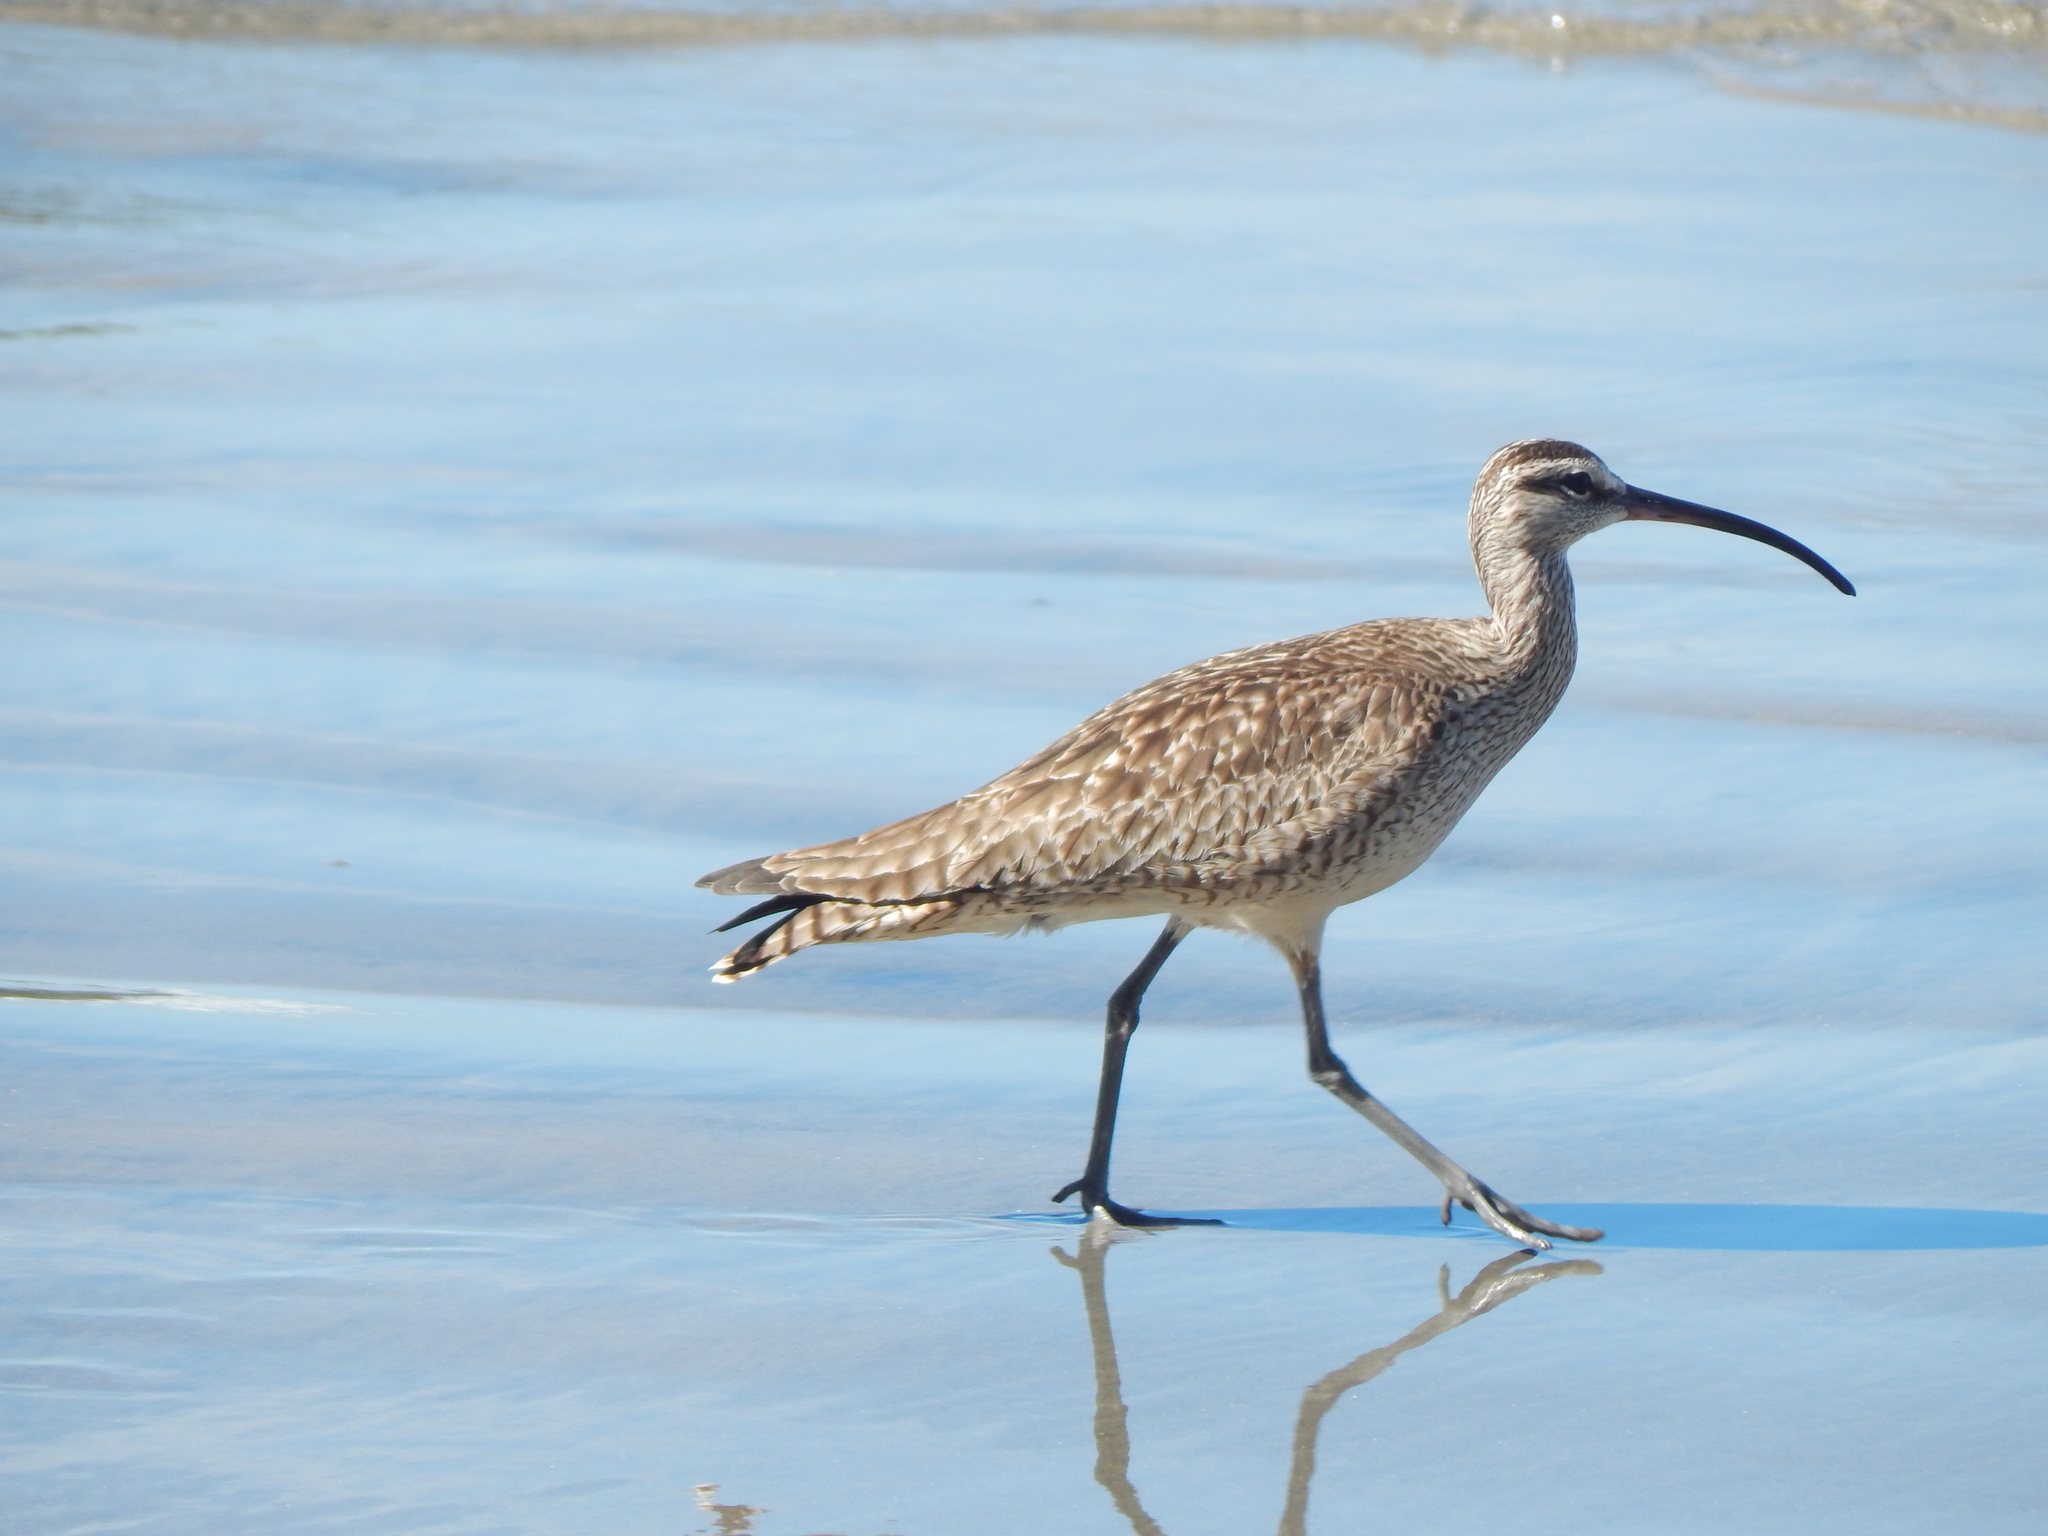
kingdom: Animalia
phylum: Chordata
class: Aves
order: Charadriiformes
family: Scolopacidae
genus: Numenius
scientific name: Numenius phaeopus
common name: Whimbrel
